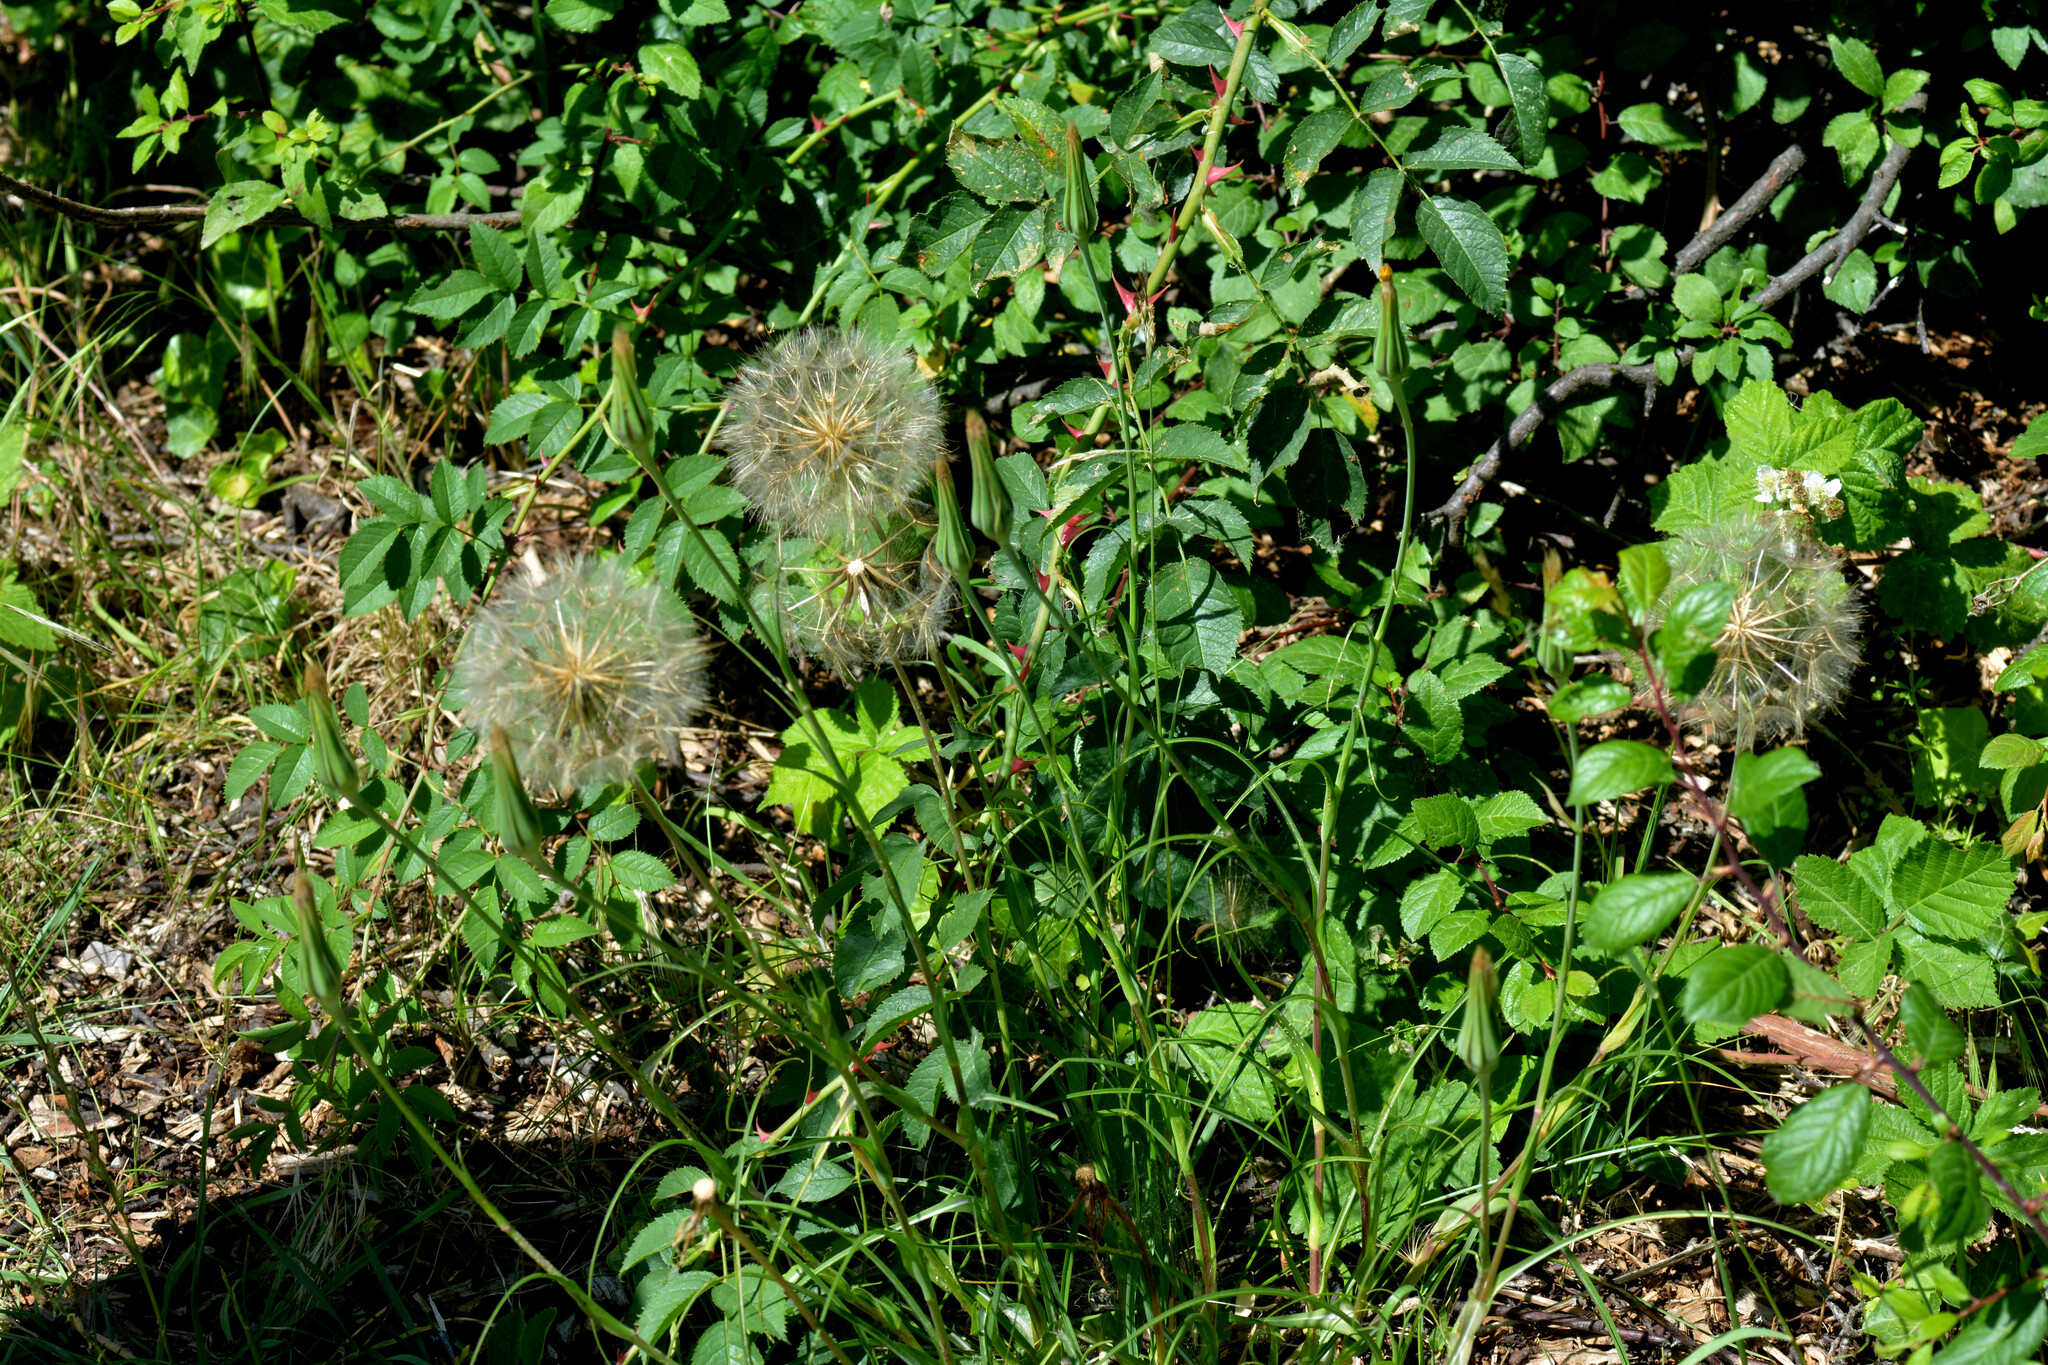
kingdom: Plantae
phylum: Tracheophyta
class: Magnoliopsida
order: Asterales
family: Asteraceae
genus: Tragopogon
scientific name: Tragopogon pratensis
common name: Goat's-beard
